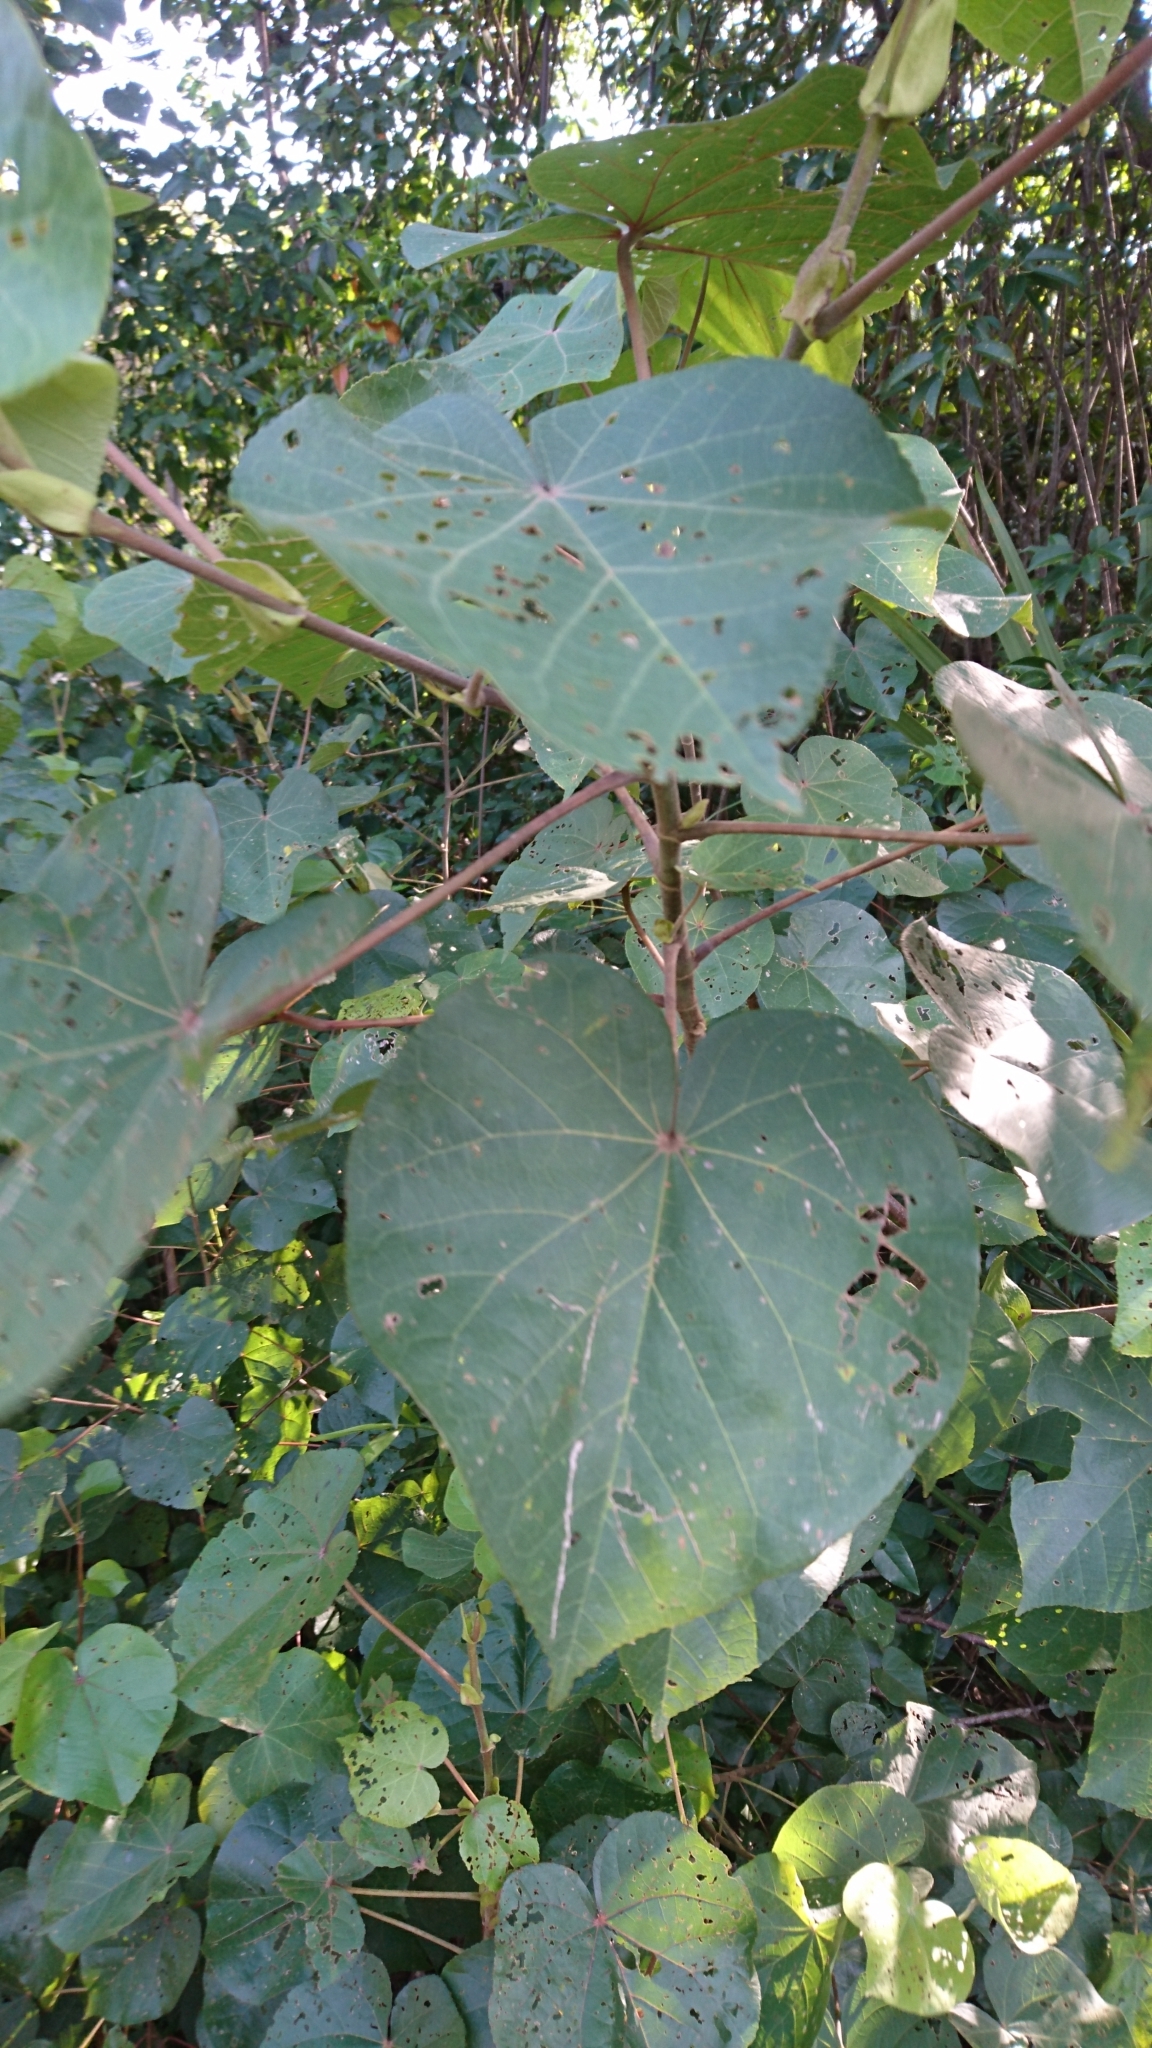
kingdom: Plantae
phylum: Tracheophyta
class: Magnoliopsida
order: Malvales
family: Malvaceae
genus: Talipariti
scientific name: Talipariti tiliaceum
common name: Sea hibiscus
